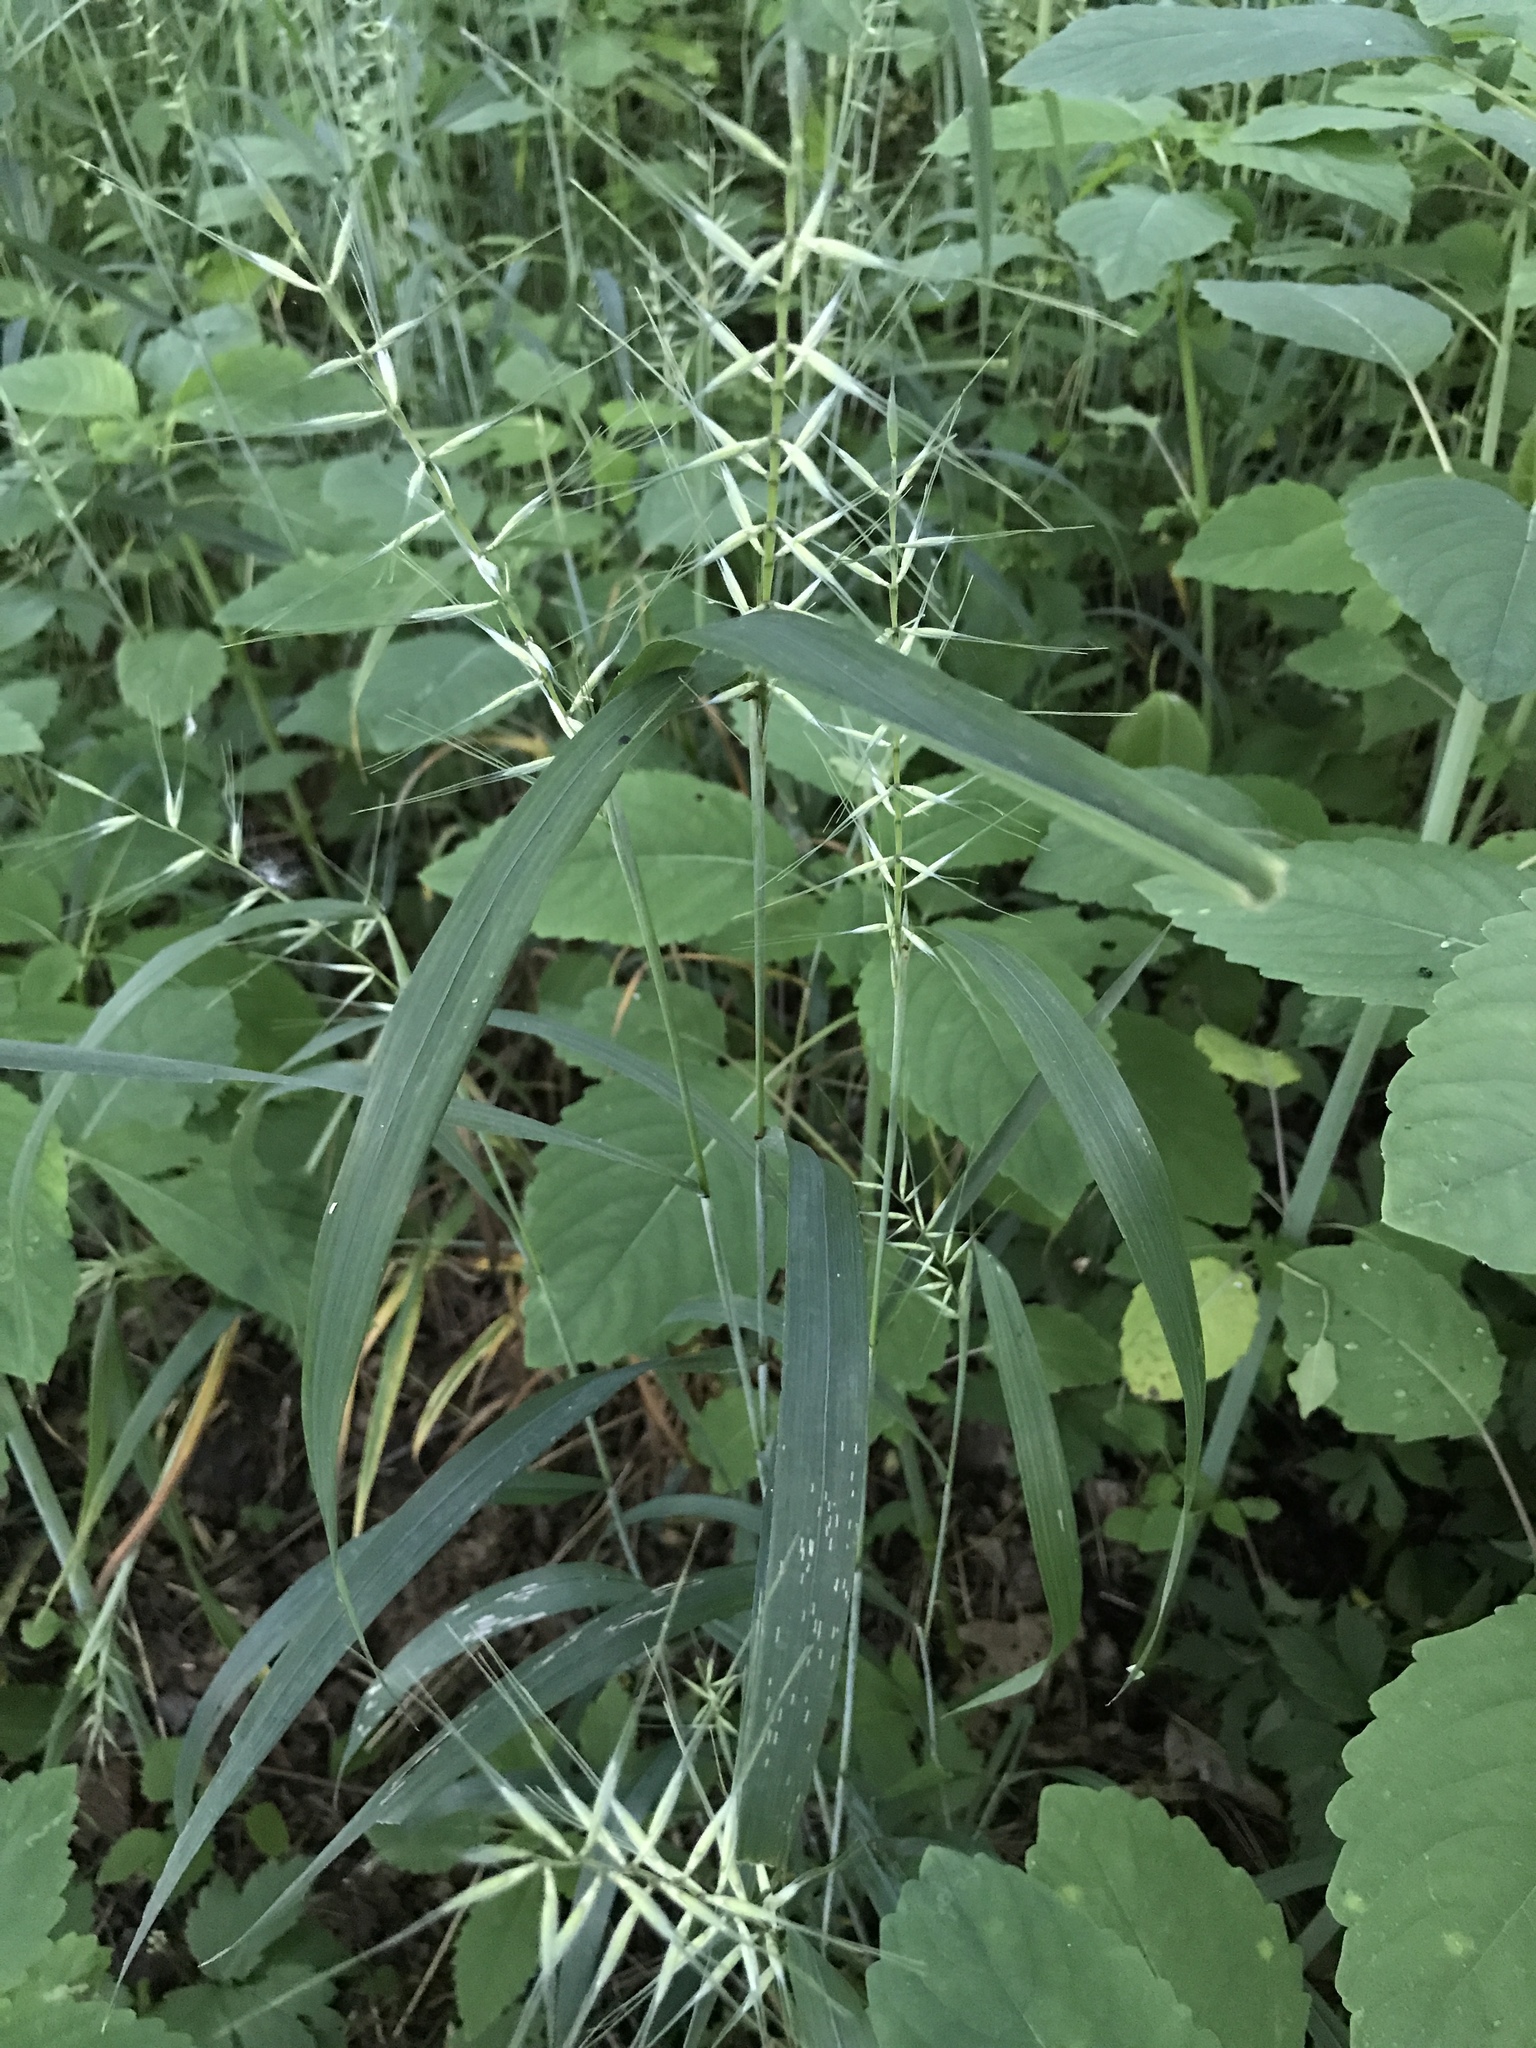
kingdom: Plantae
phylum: Tracheophyta
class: Liliopsida
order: Poales
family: Poaceae
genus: Elymus
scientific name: Elymus hystrix
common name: Bottlebrush grass
